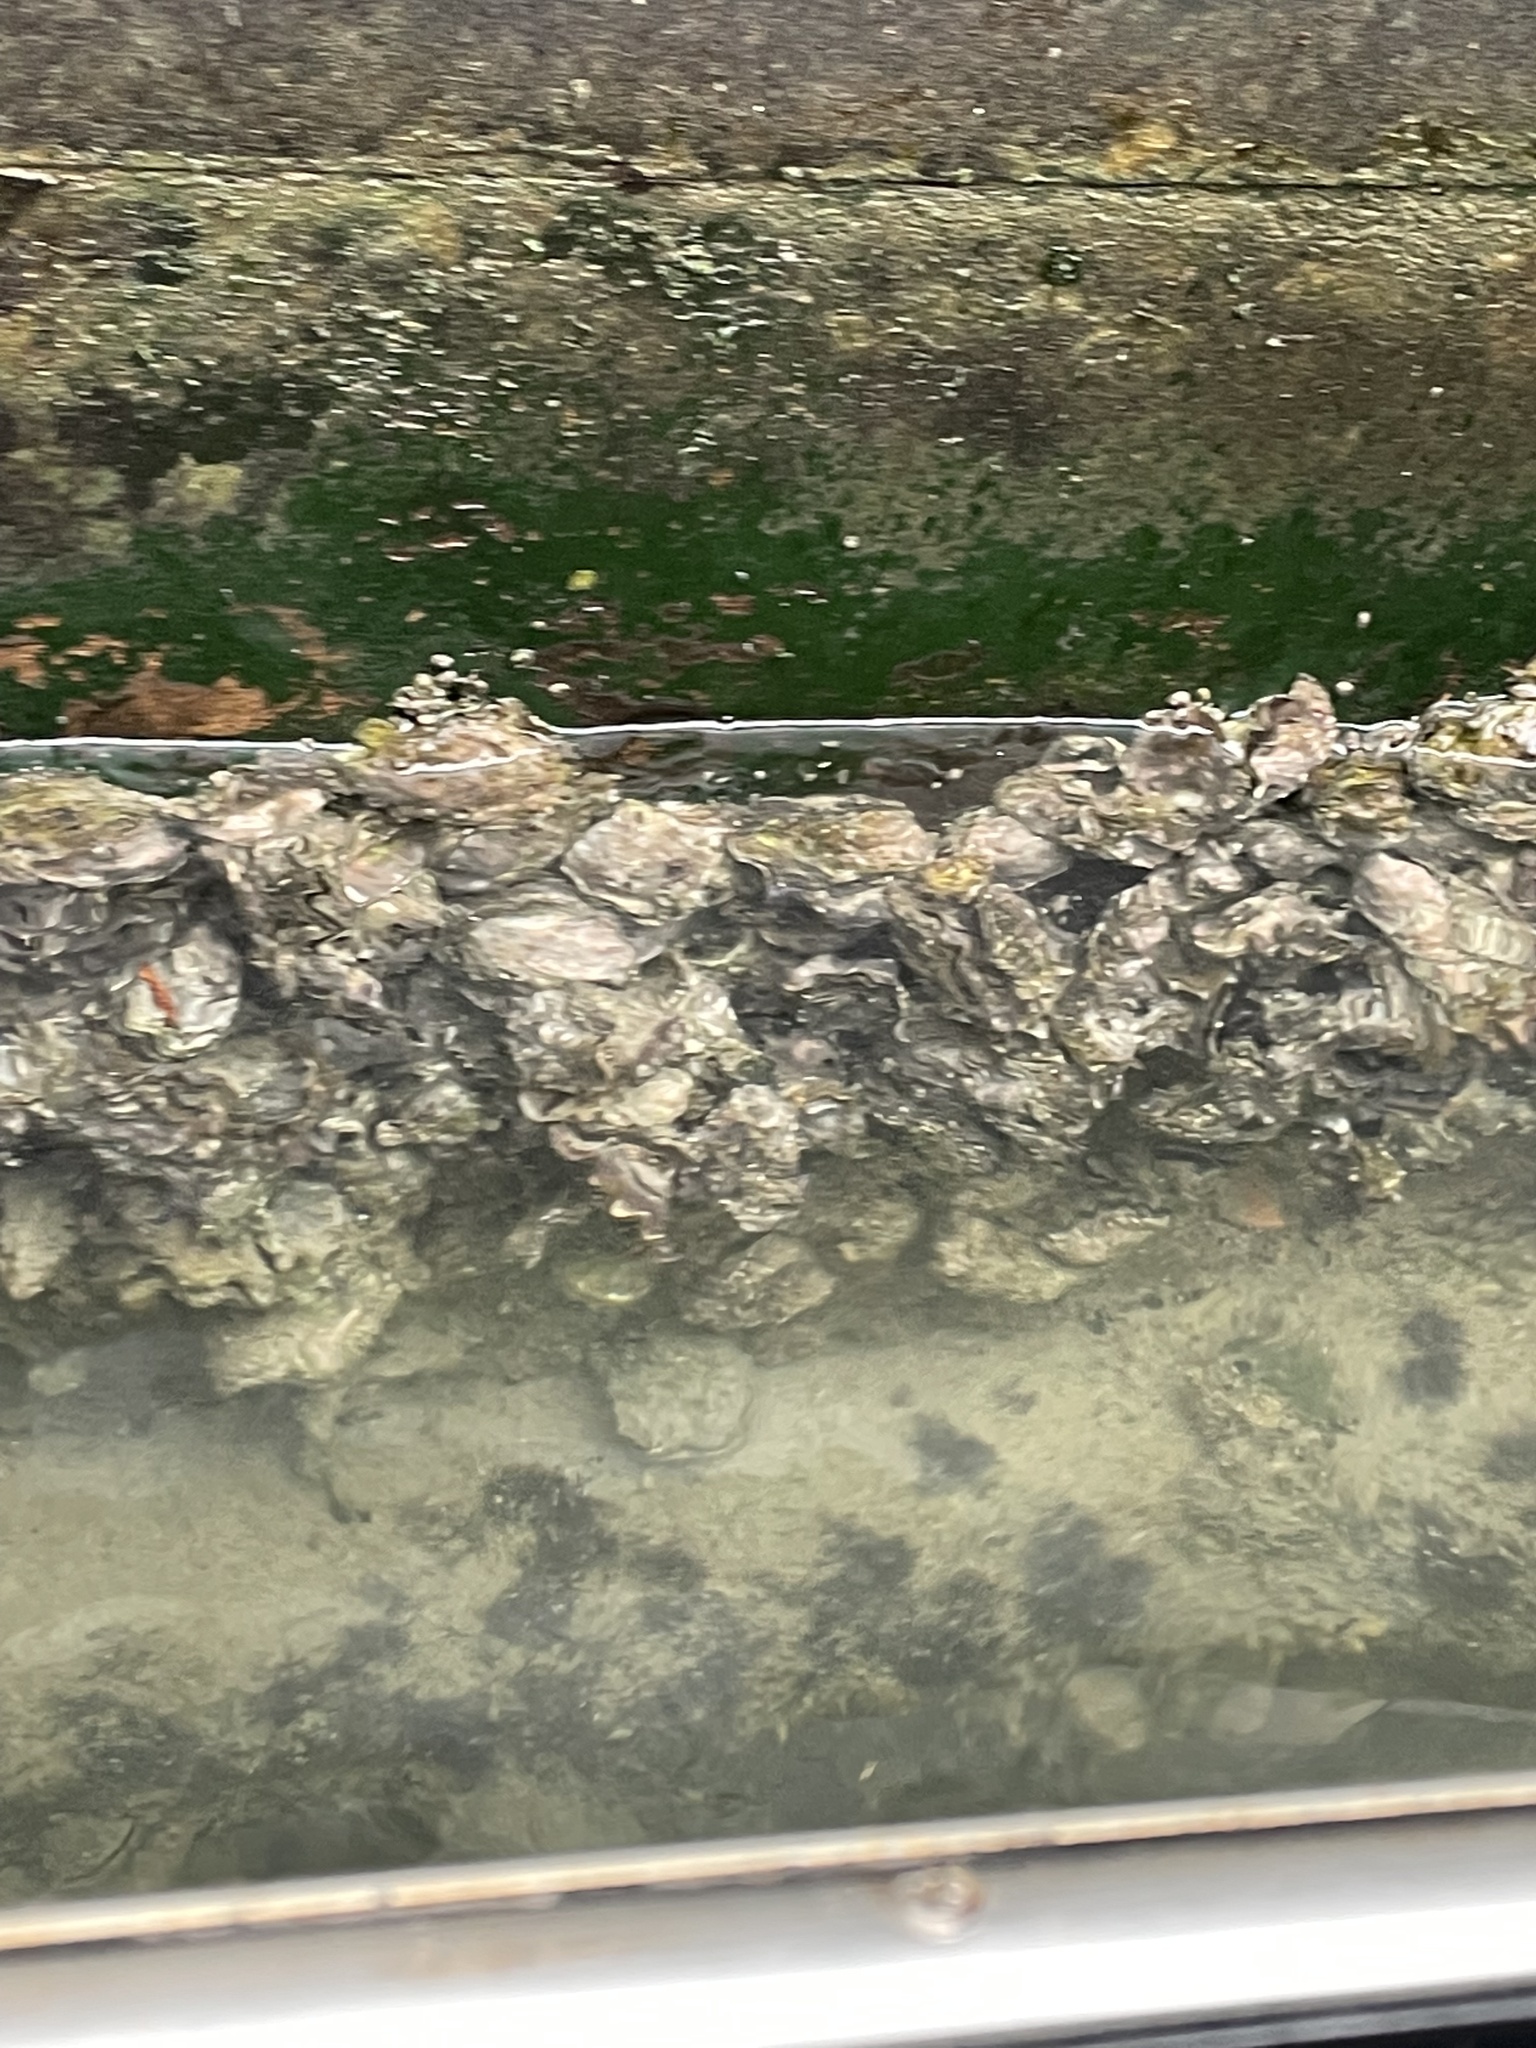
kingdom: Animalia
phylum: Mollusca
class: Bivalvia
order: Ostreida
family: Ostreidae
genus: Magallana
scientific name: Magallana gigas
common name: Pacific oyster
